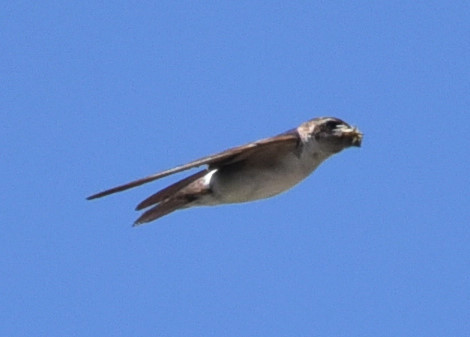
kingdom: Animalia
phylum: Chordata
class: Aves
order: Passeriformes
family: Hirundinidae
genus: Stelgidopteryx
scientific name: Stelgidopteryx serripennis
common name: Northern rough-winged swallow
